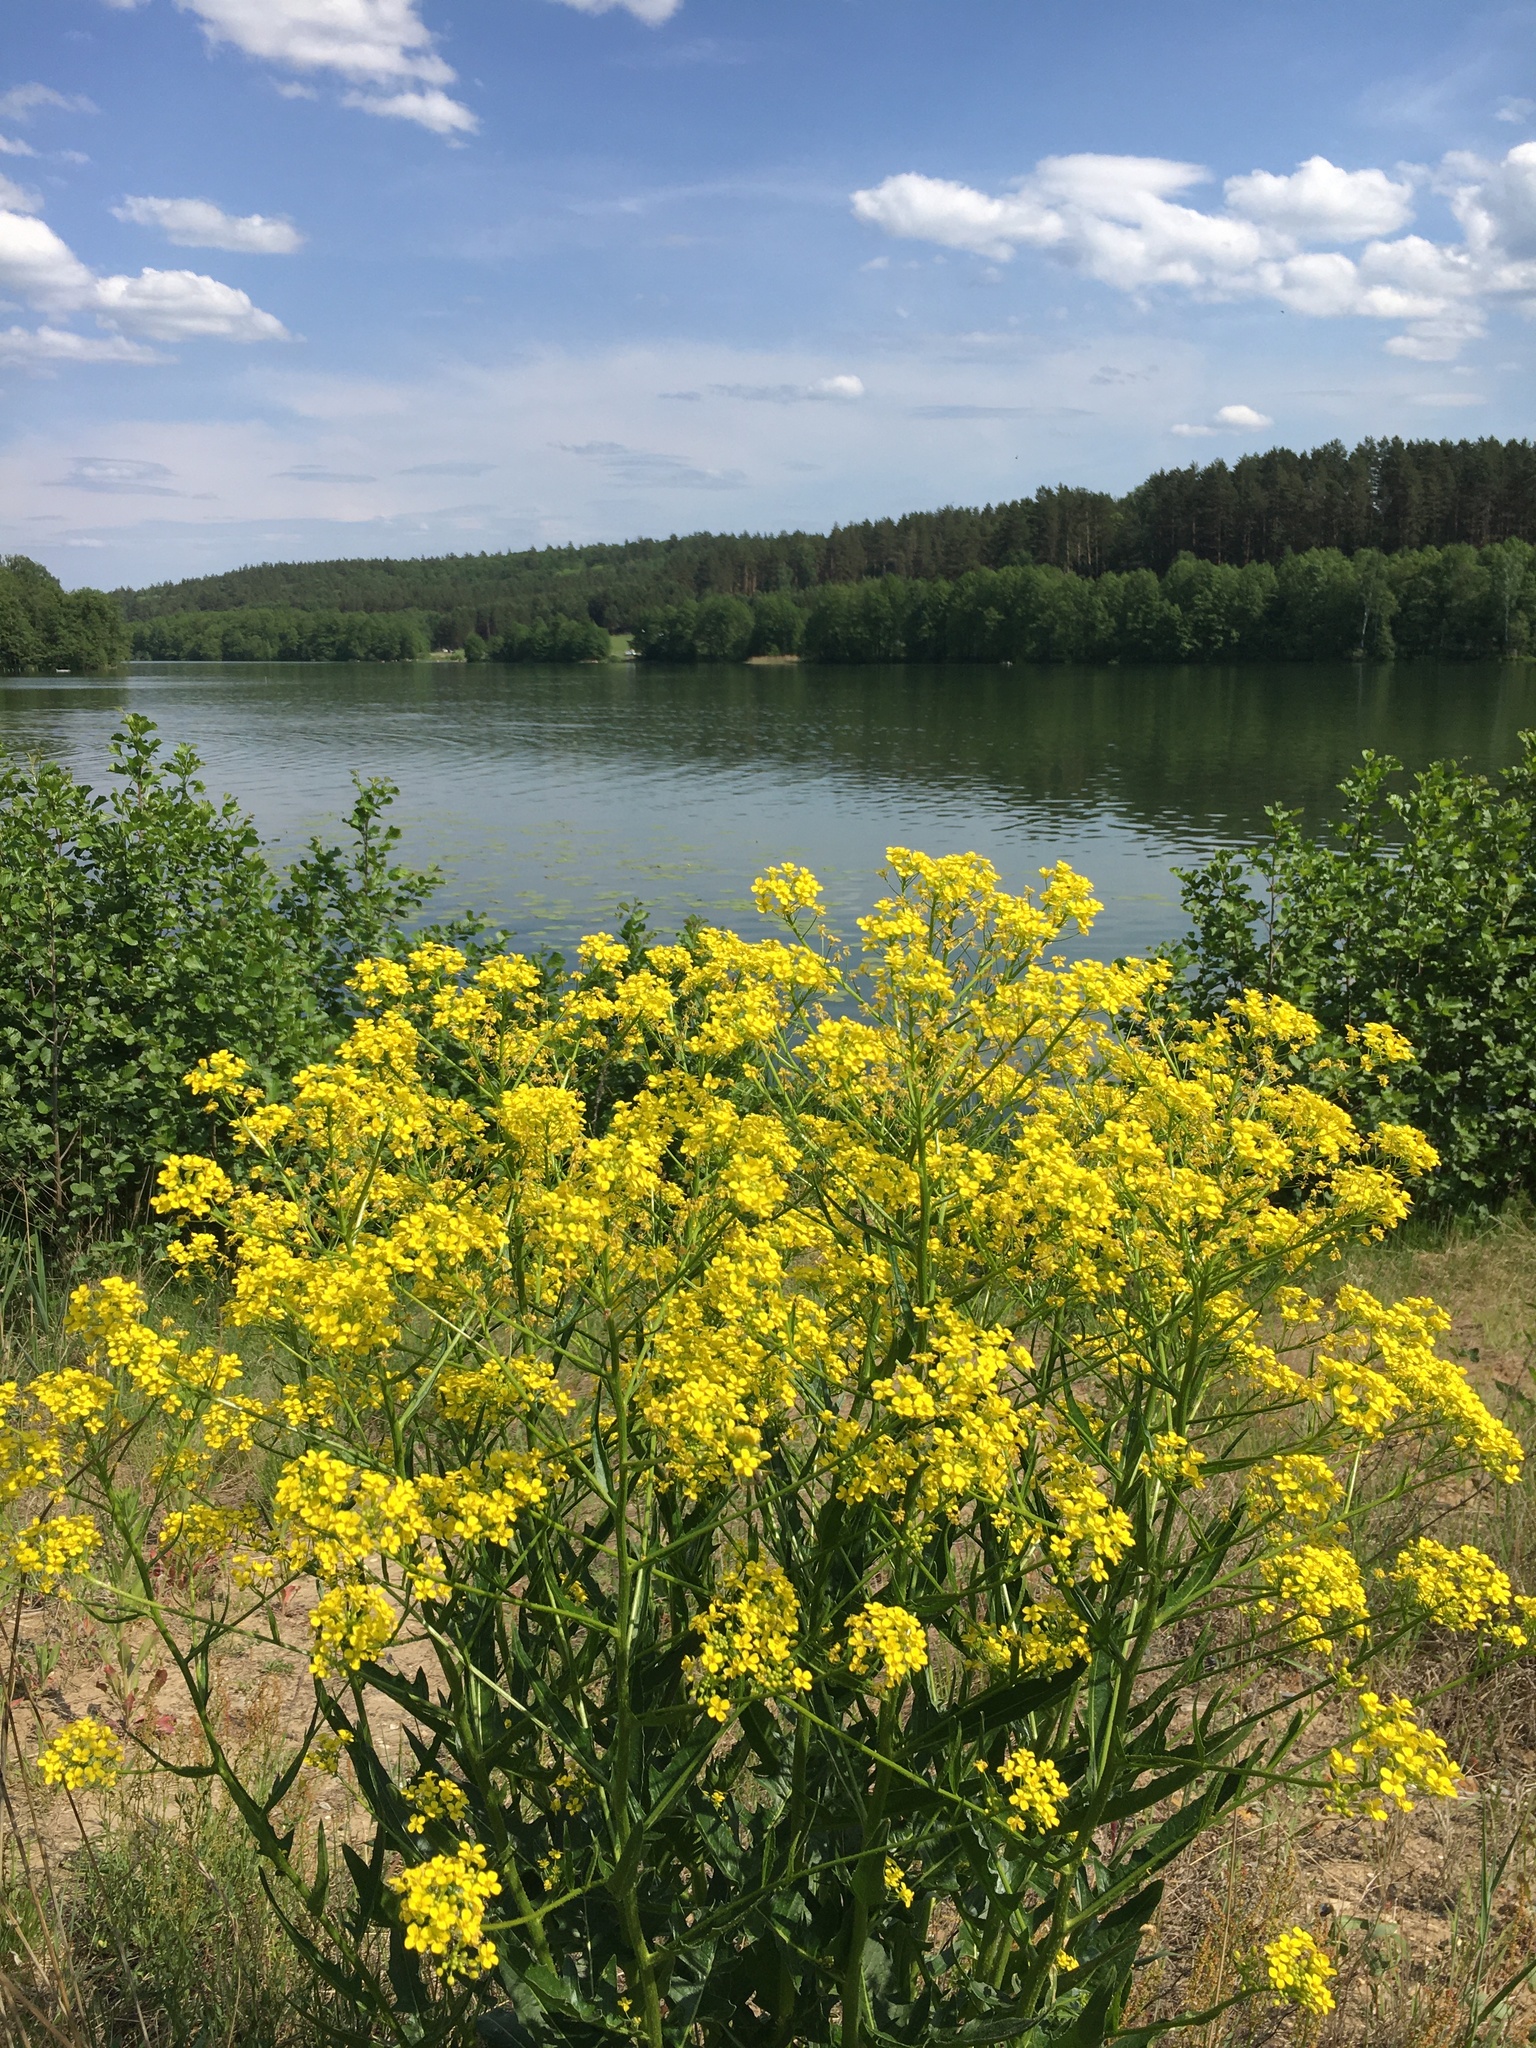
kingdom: Plantae
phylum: Tracheophyta
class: Magnoliopsida
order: Brassicales
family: Brassicaceae
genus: Bunias
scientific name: Bunias orientalis
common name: Warty-cabbage
